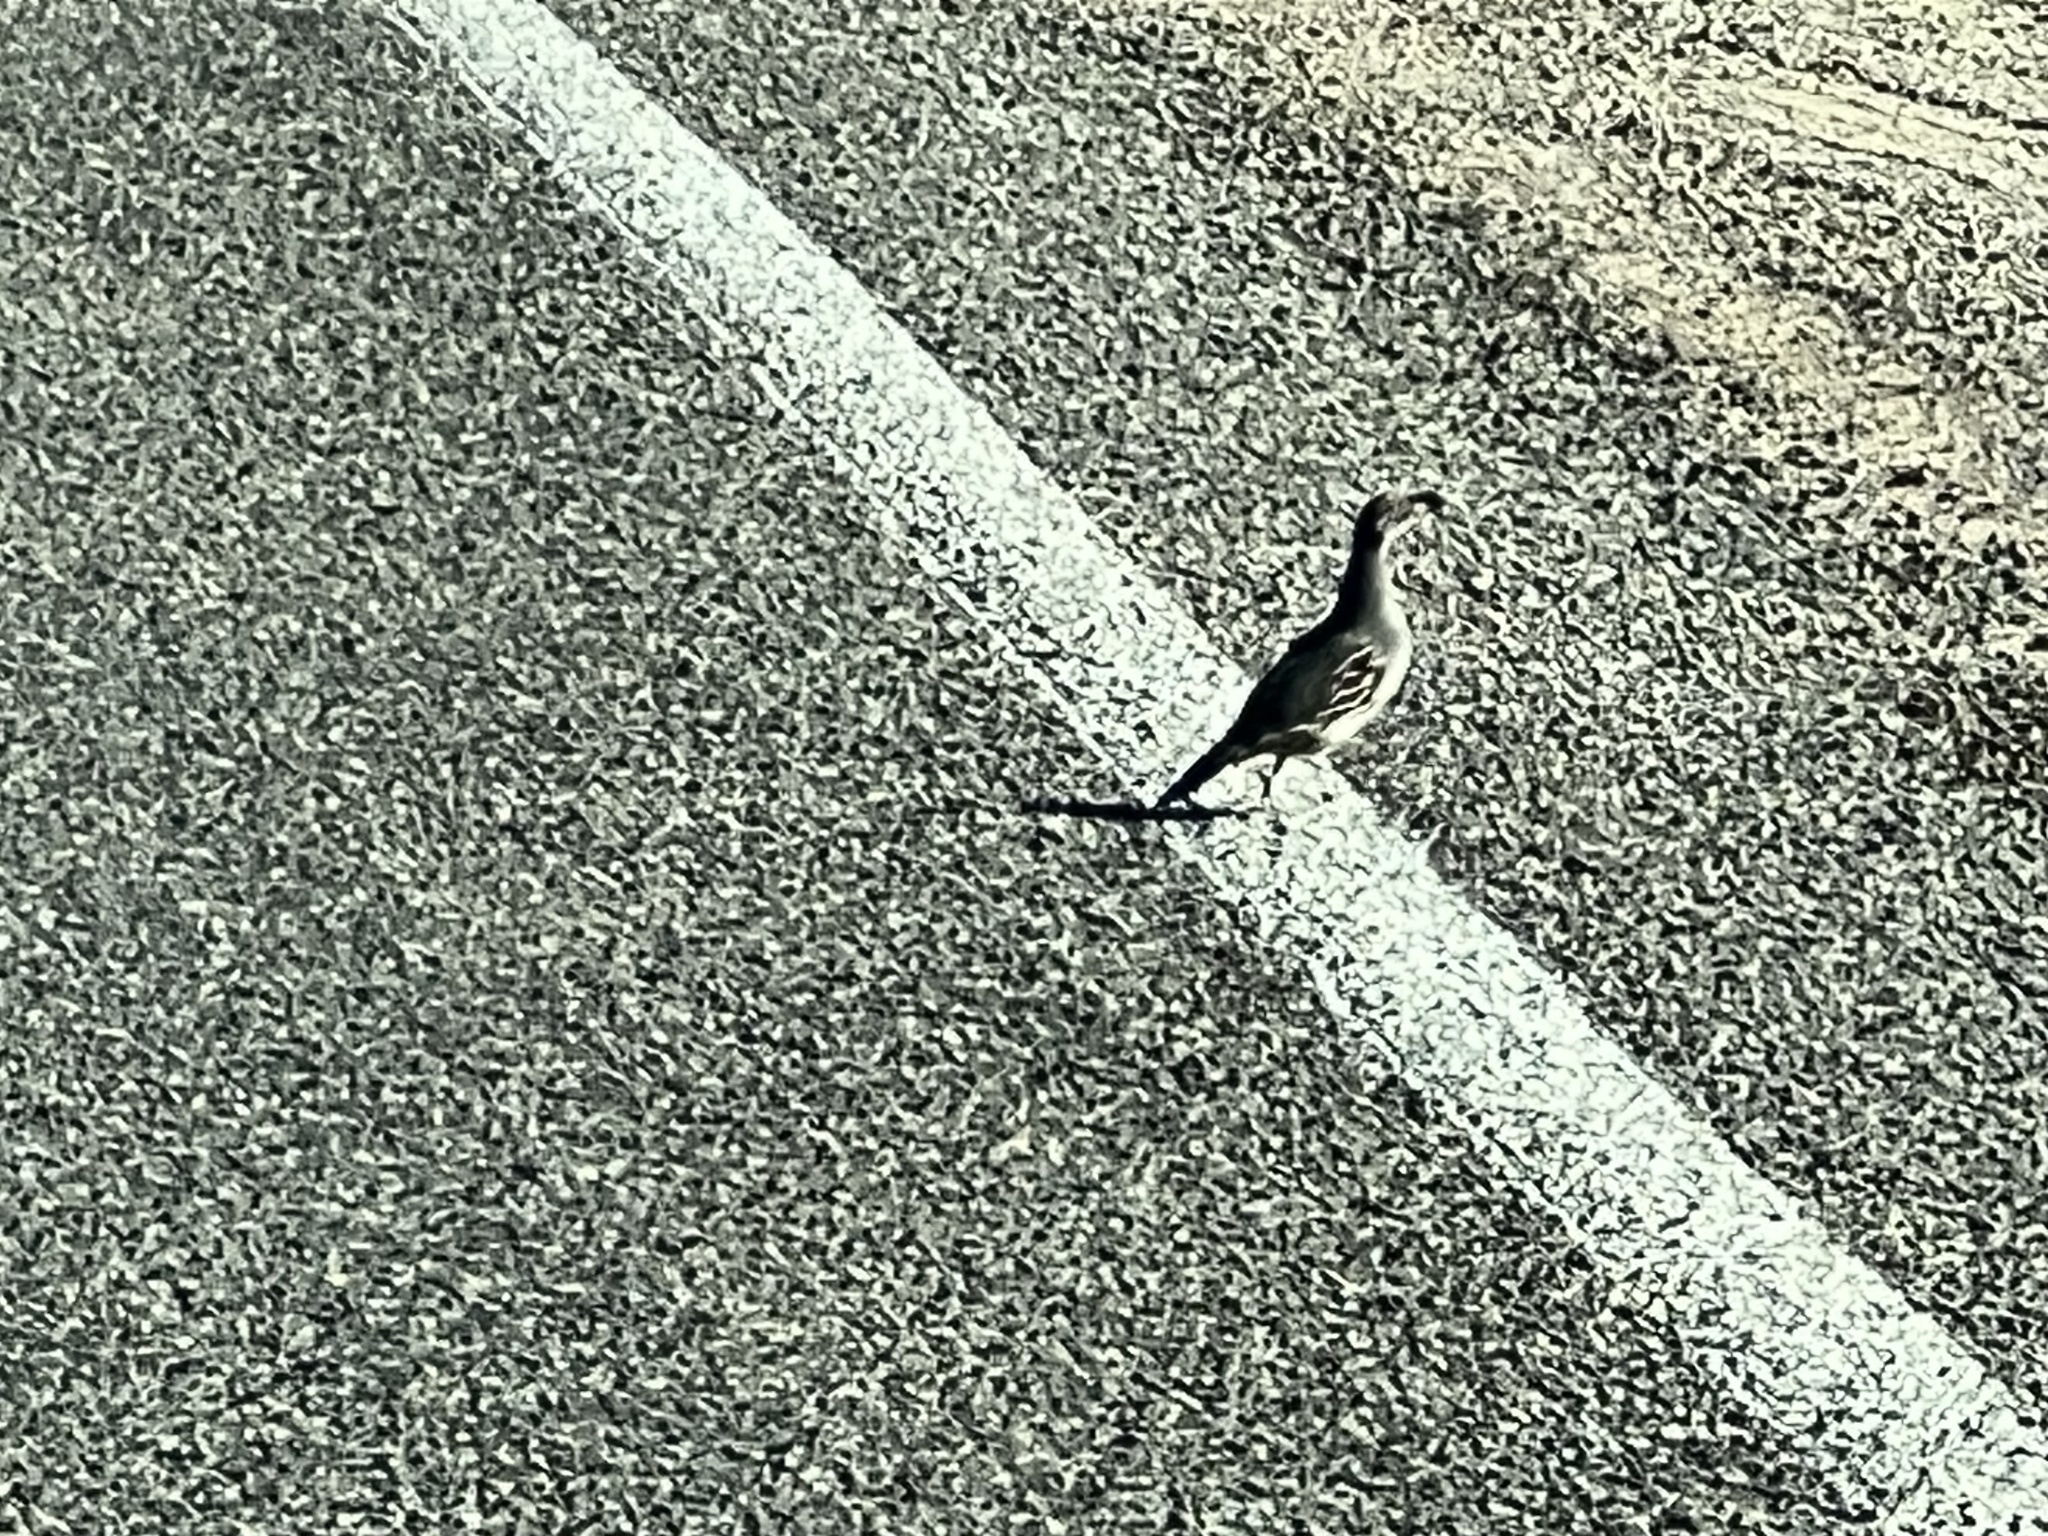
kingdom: Animalia
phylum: Chordata
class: Aves
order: Galliformes
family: Odontophoridae
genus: Callipepla
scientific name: Callipepla gambelii
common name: Gambel's quail
